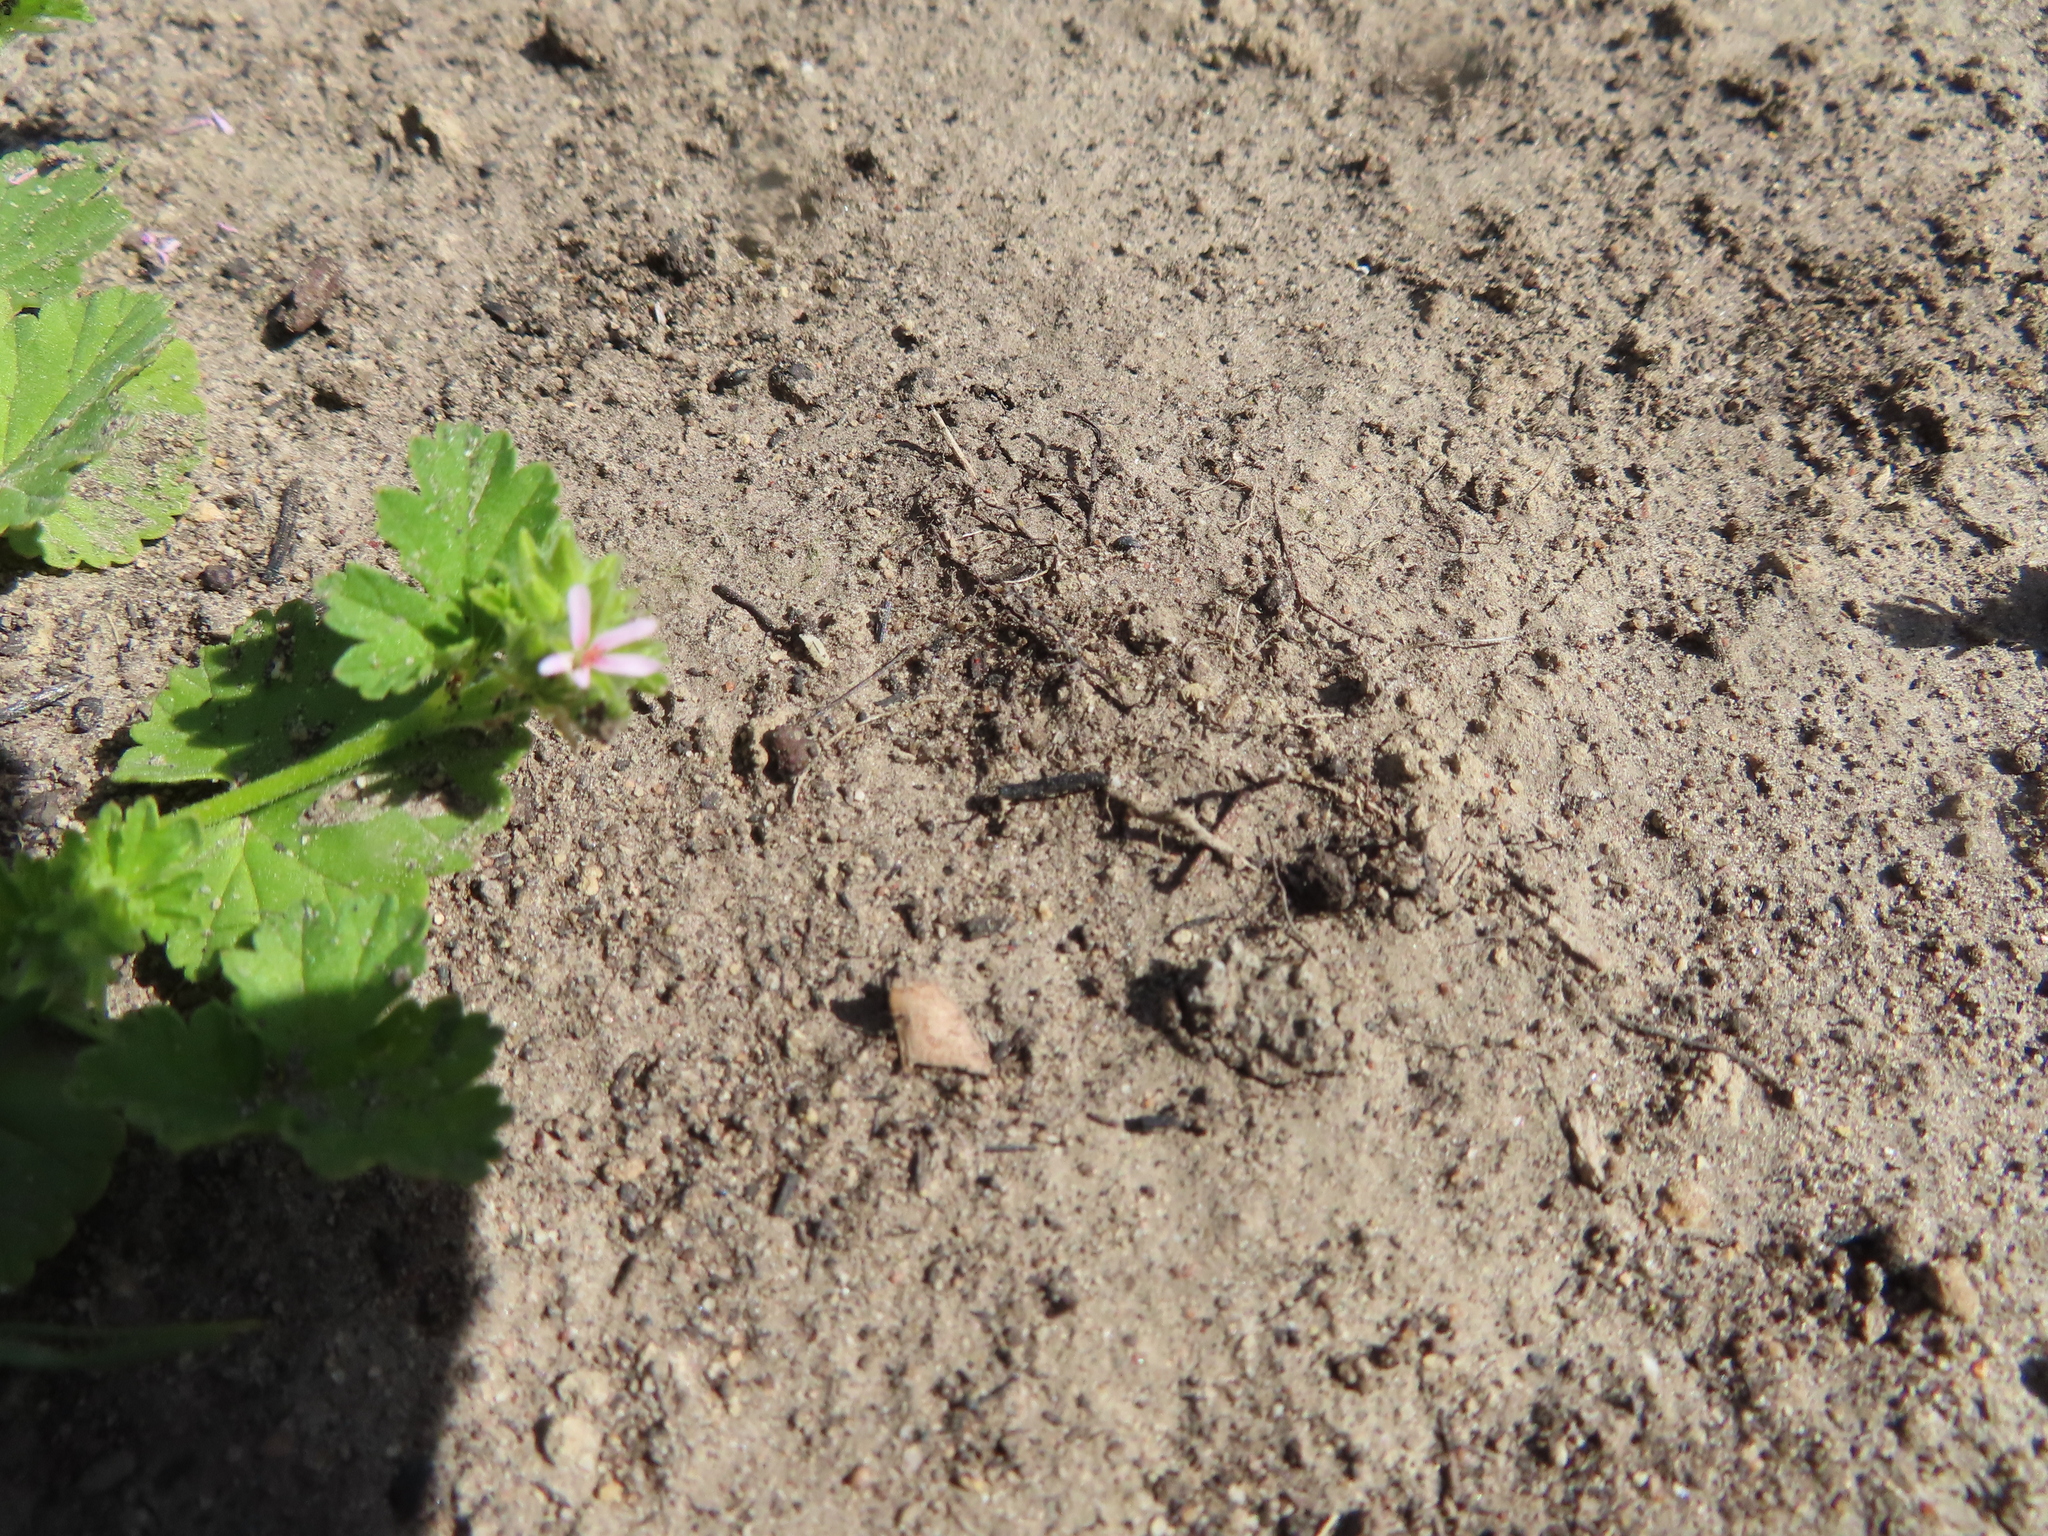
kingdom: Plantae
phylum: Tracheophyta
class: Magnoliopsida
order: Geraniales
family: Geraniaceae
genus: Pelargonium
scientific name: Pelargonium grossularioides
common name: Gooseberry geranium
